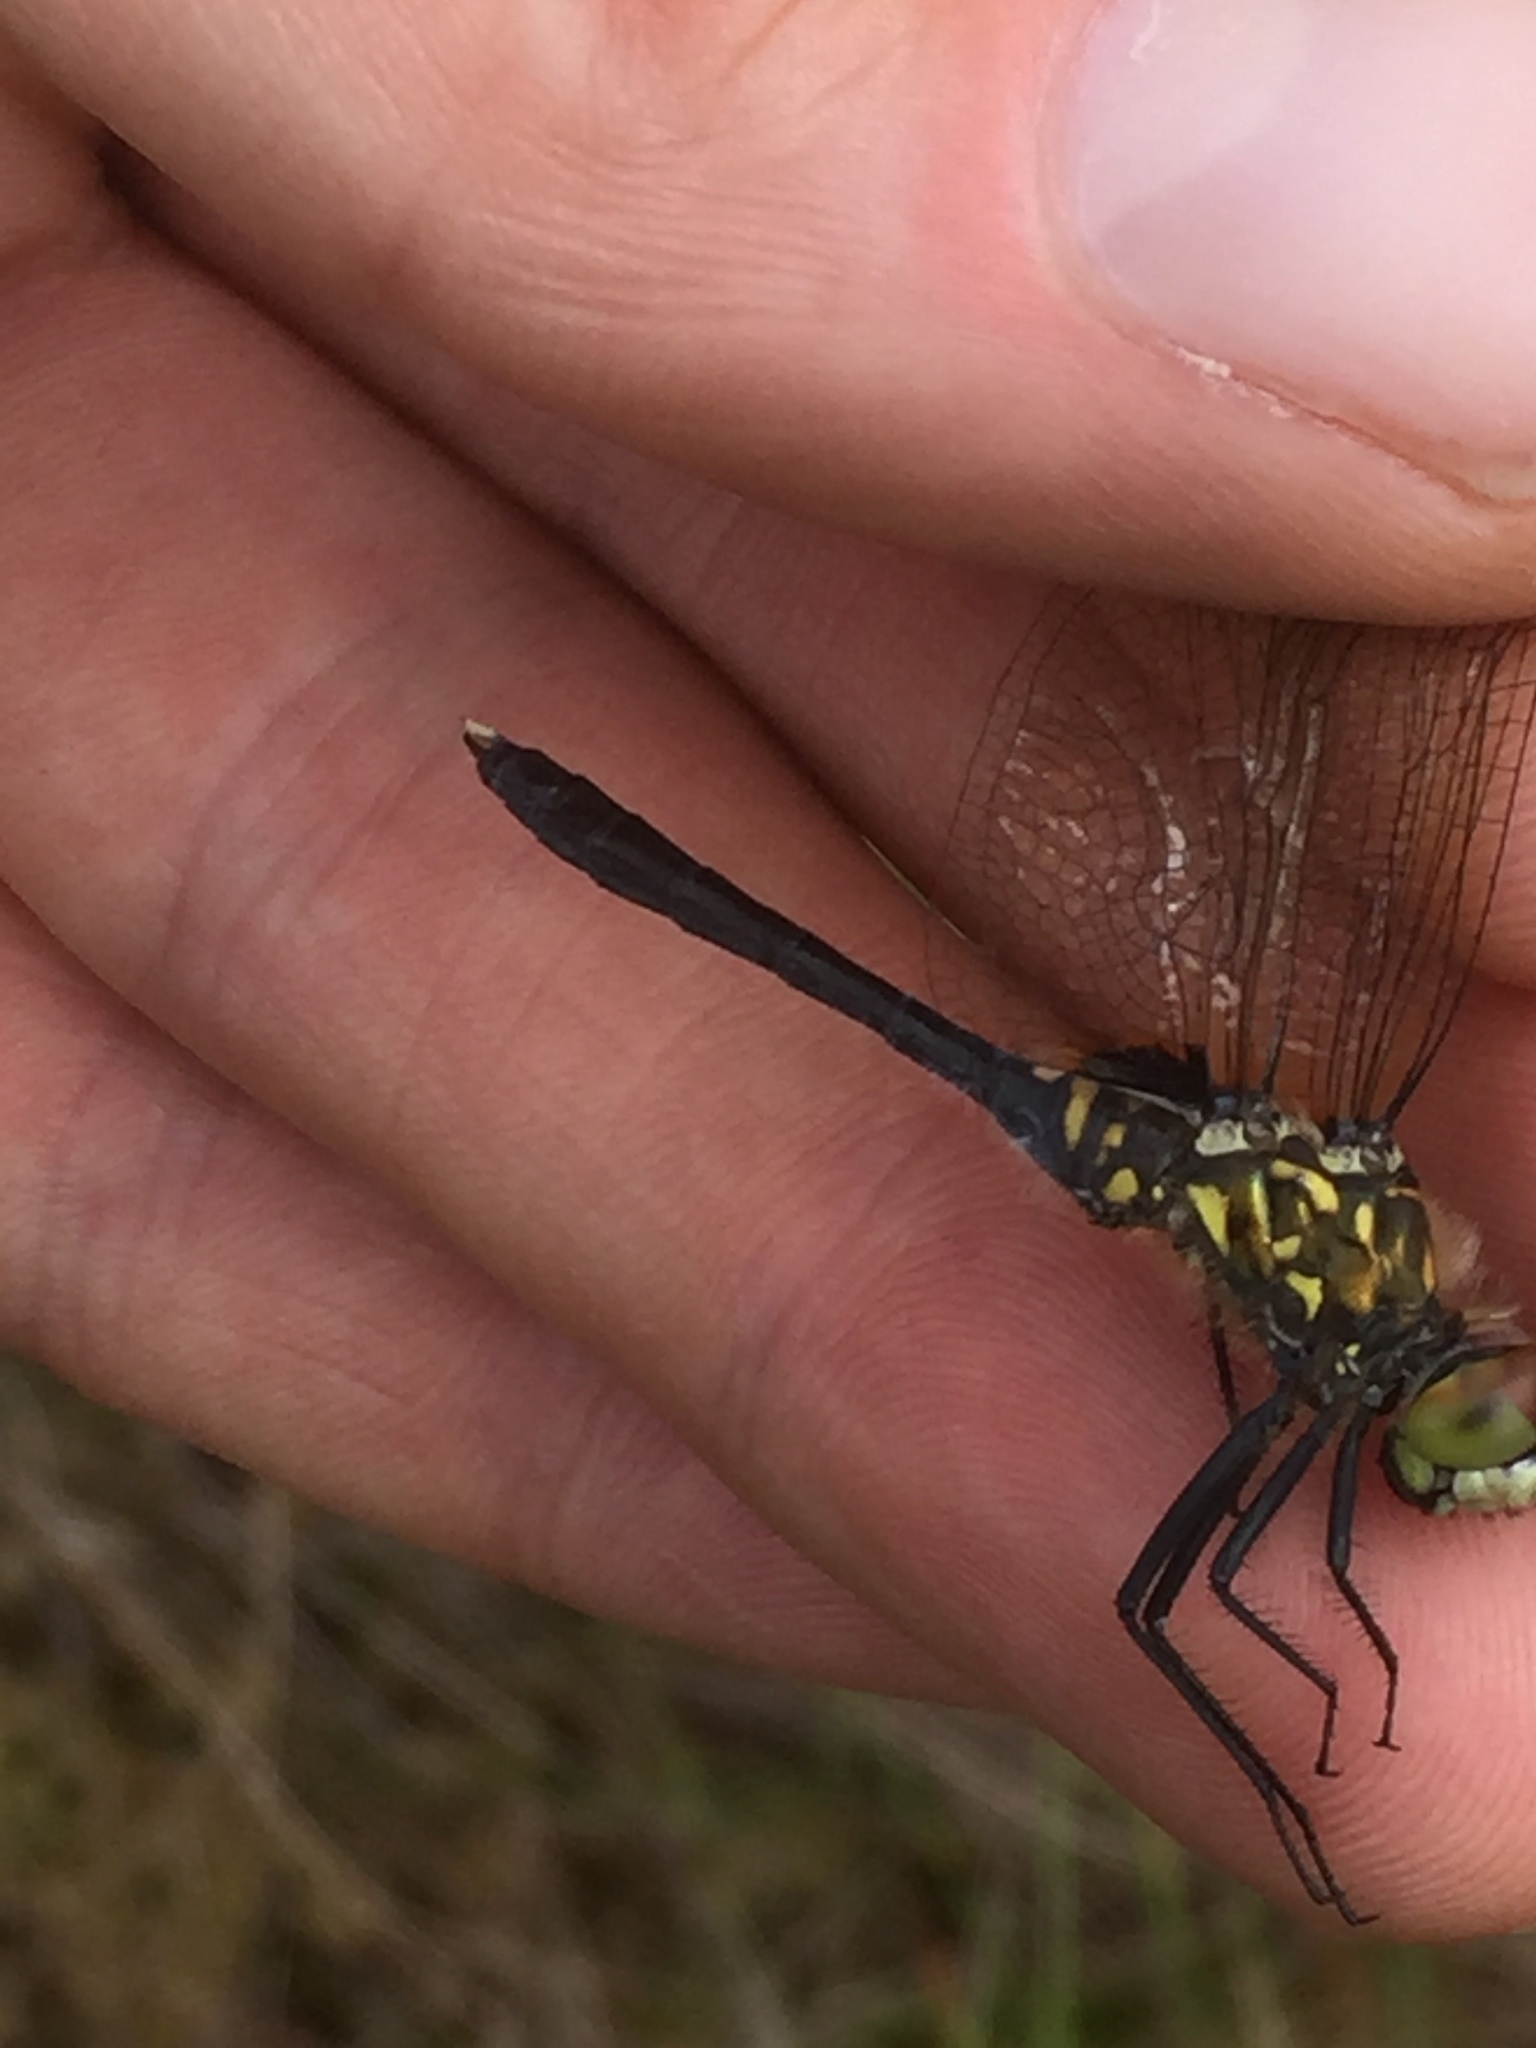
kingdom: Animalia
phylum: Arthropoda
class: Insecta
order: Odonata
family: Libellulidae
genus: Leucorrhinia
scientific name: Leucorrhinia albifrons
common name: Dark whiteface
